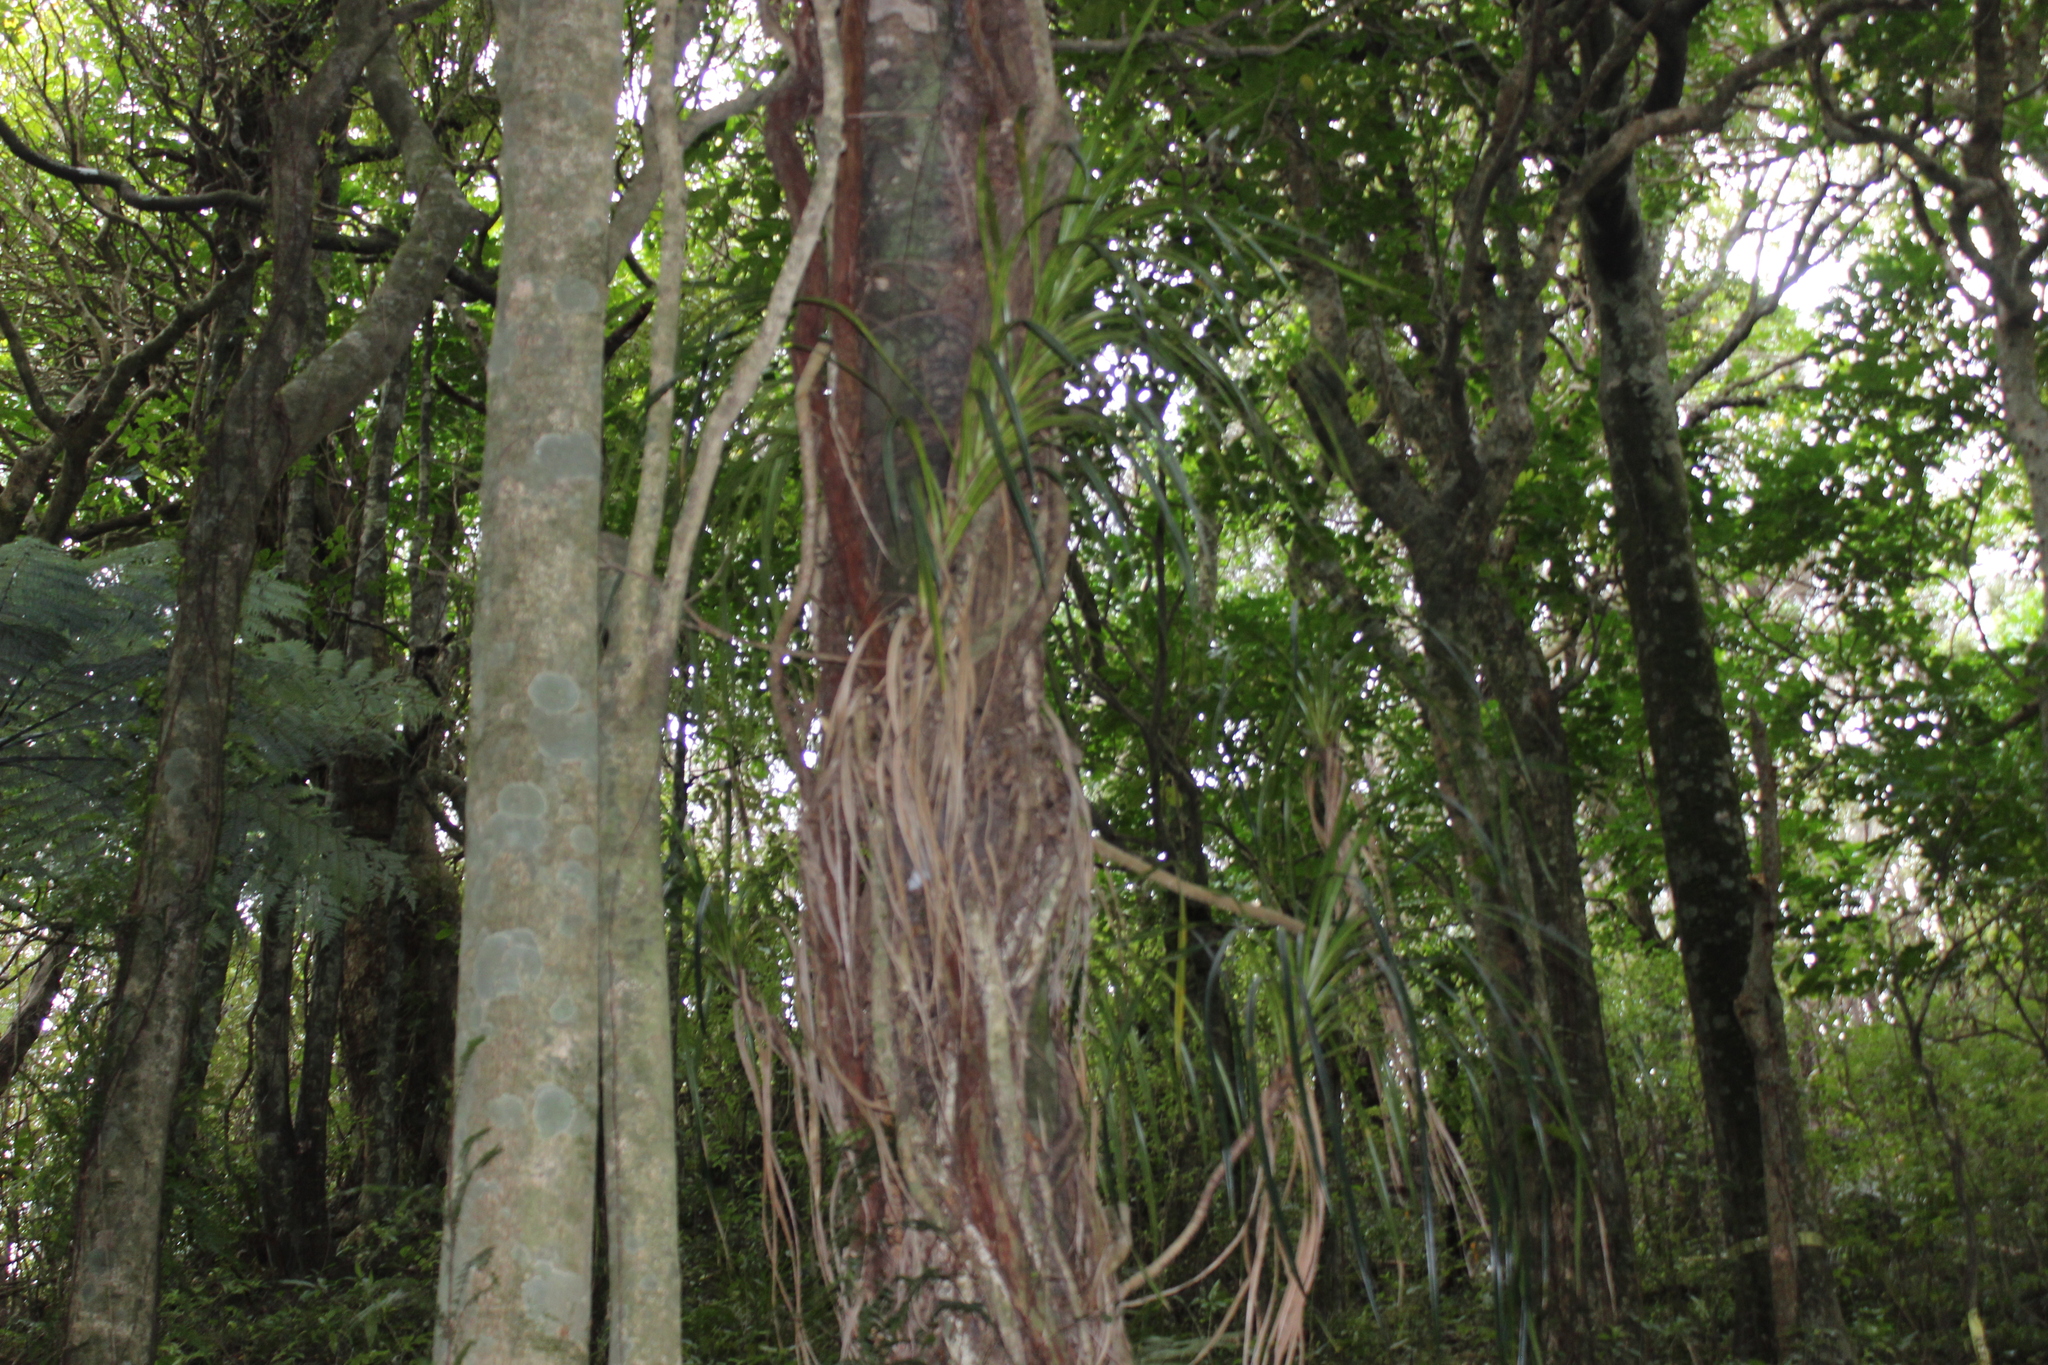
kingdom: Plantae
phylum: Tracheophyta
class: Liliopsida
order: Pandanales
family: Pandanaceae
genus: Freycinetia
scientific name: Freycinetia banksii
